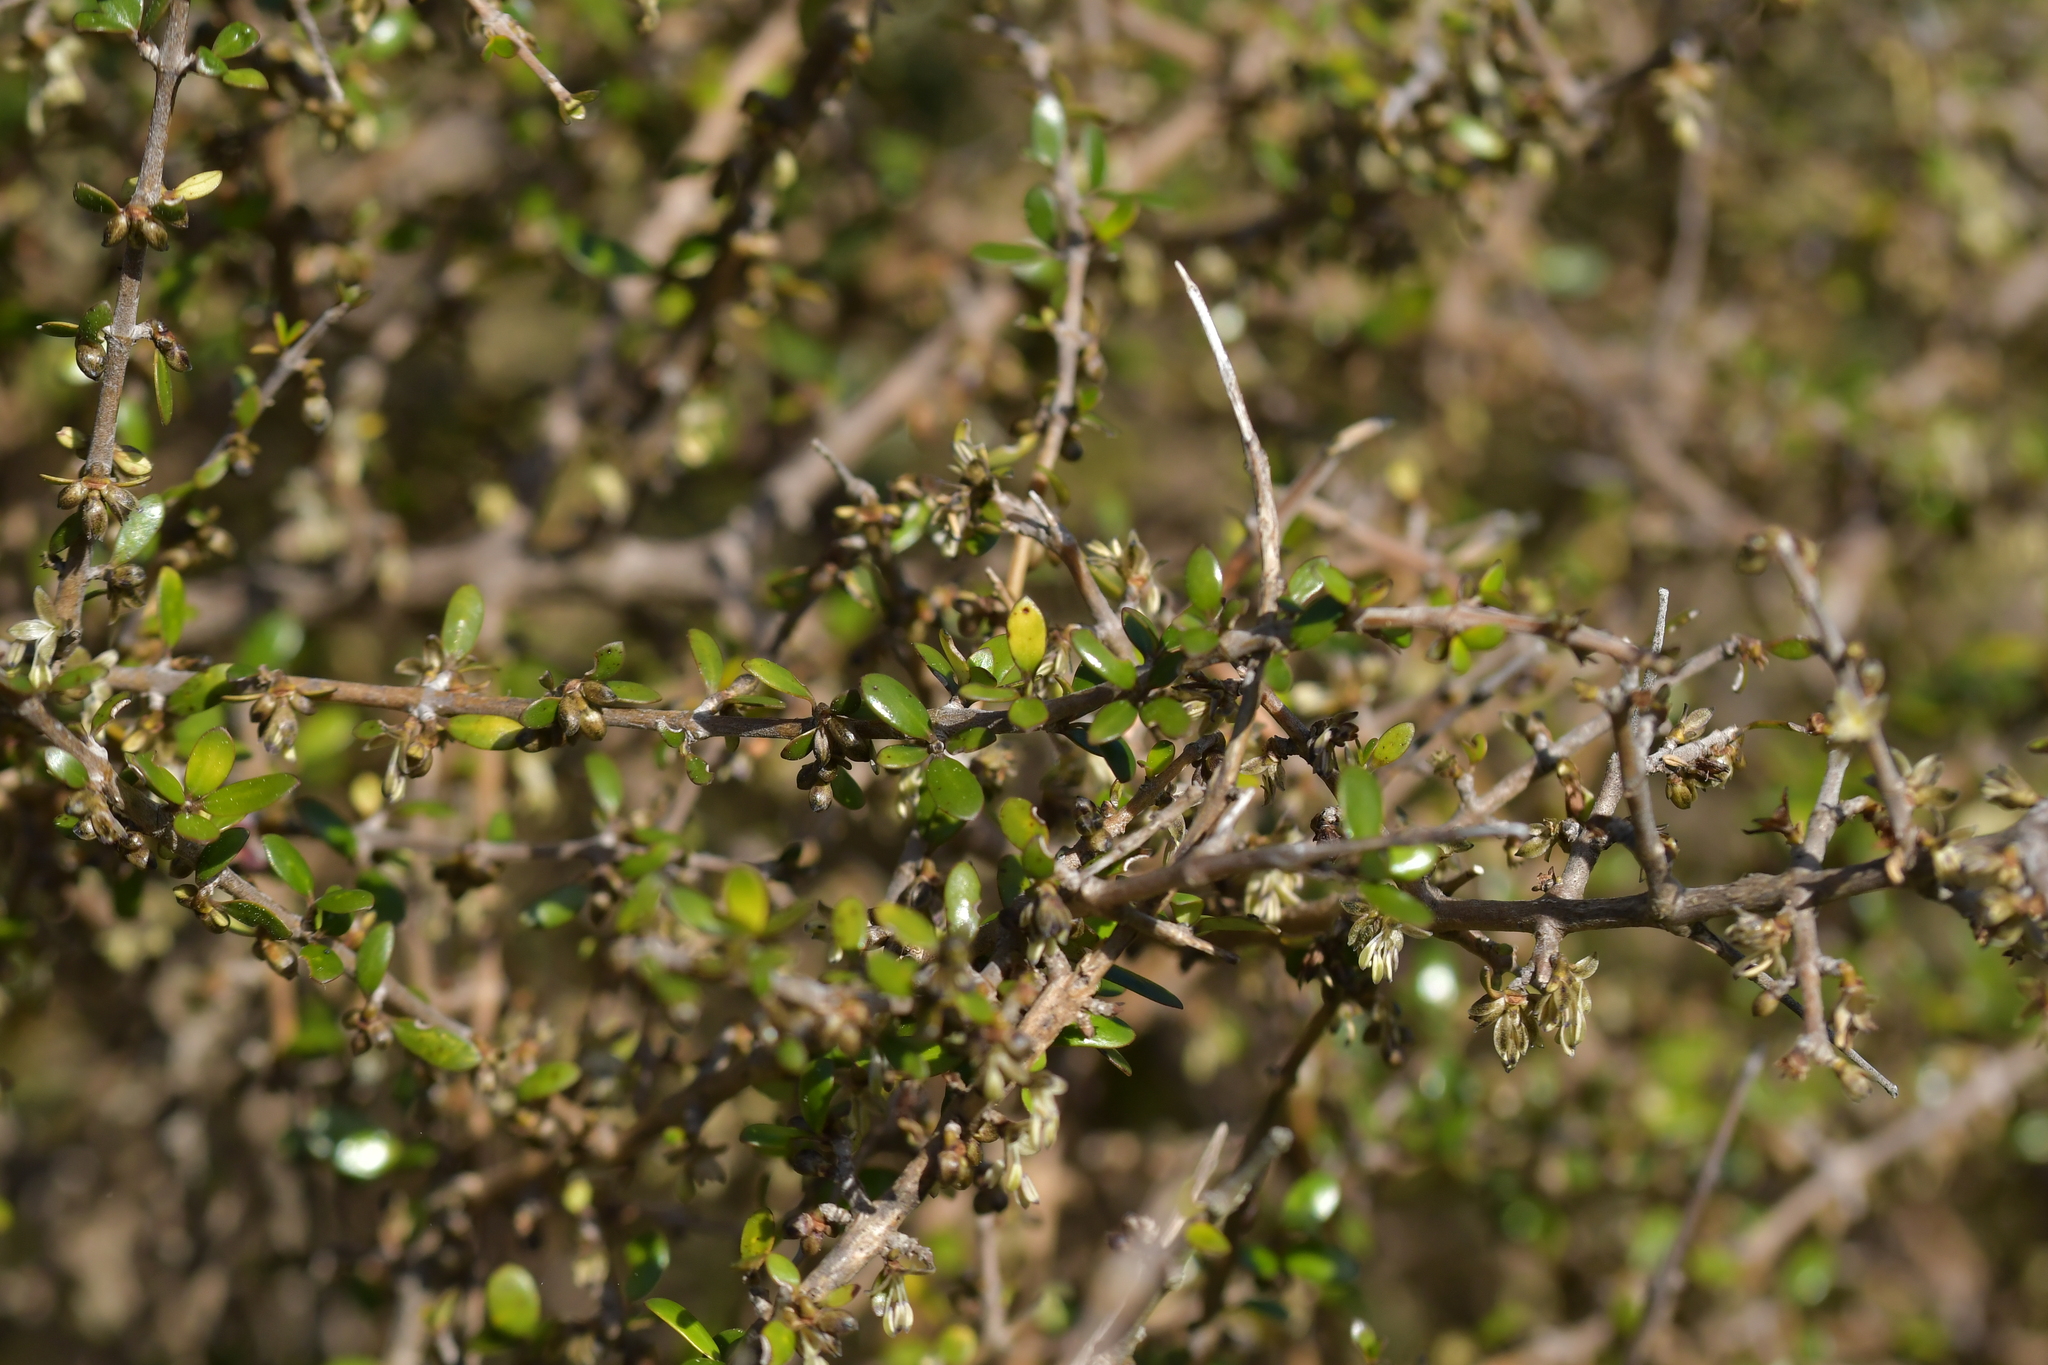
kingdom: Plantae
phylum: Tracheophyta
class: Magnoliopsida
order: Gentianales
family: Rubiaceae
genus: Coprosma
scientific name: Coprosma propinqua
